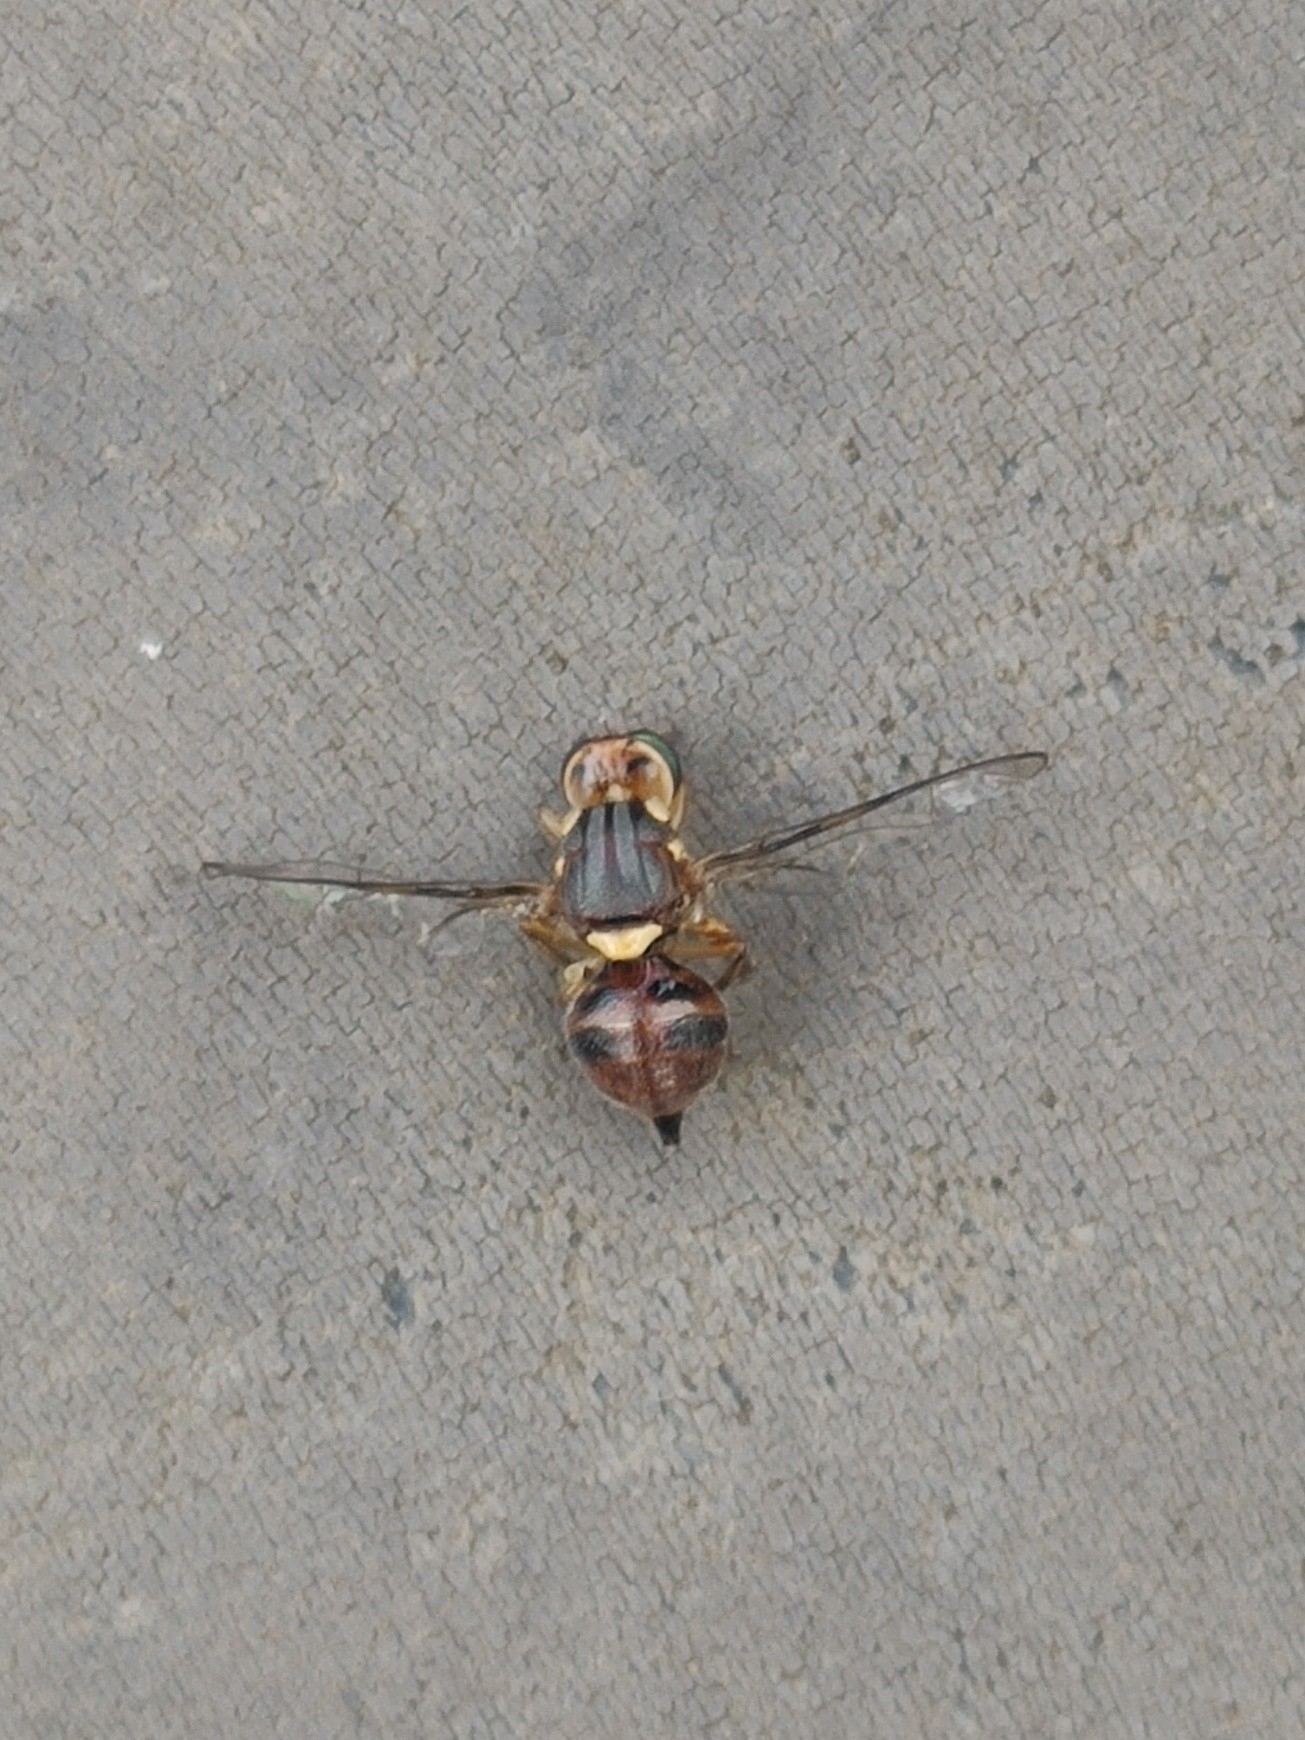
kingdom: Animalia
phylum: Arthropoda
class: Insecta
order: Diptera
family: Tephritidae
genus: Bactrocera
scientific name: Bactrocera oleae
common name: Olive fruit fly
